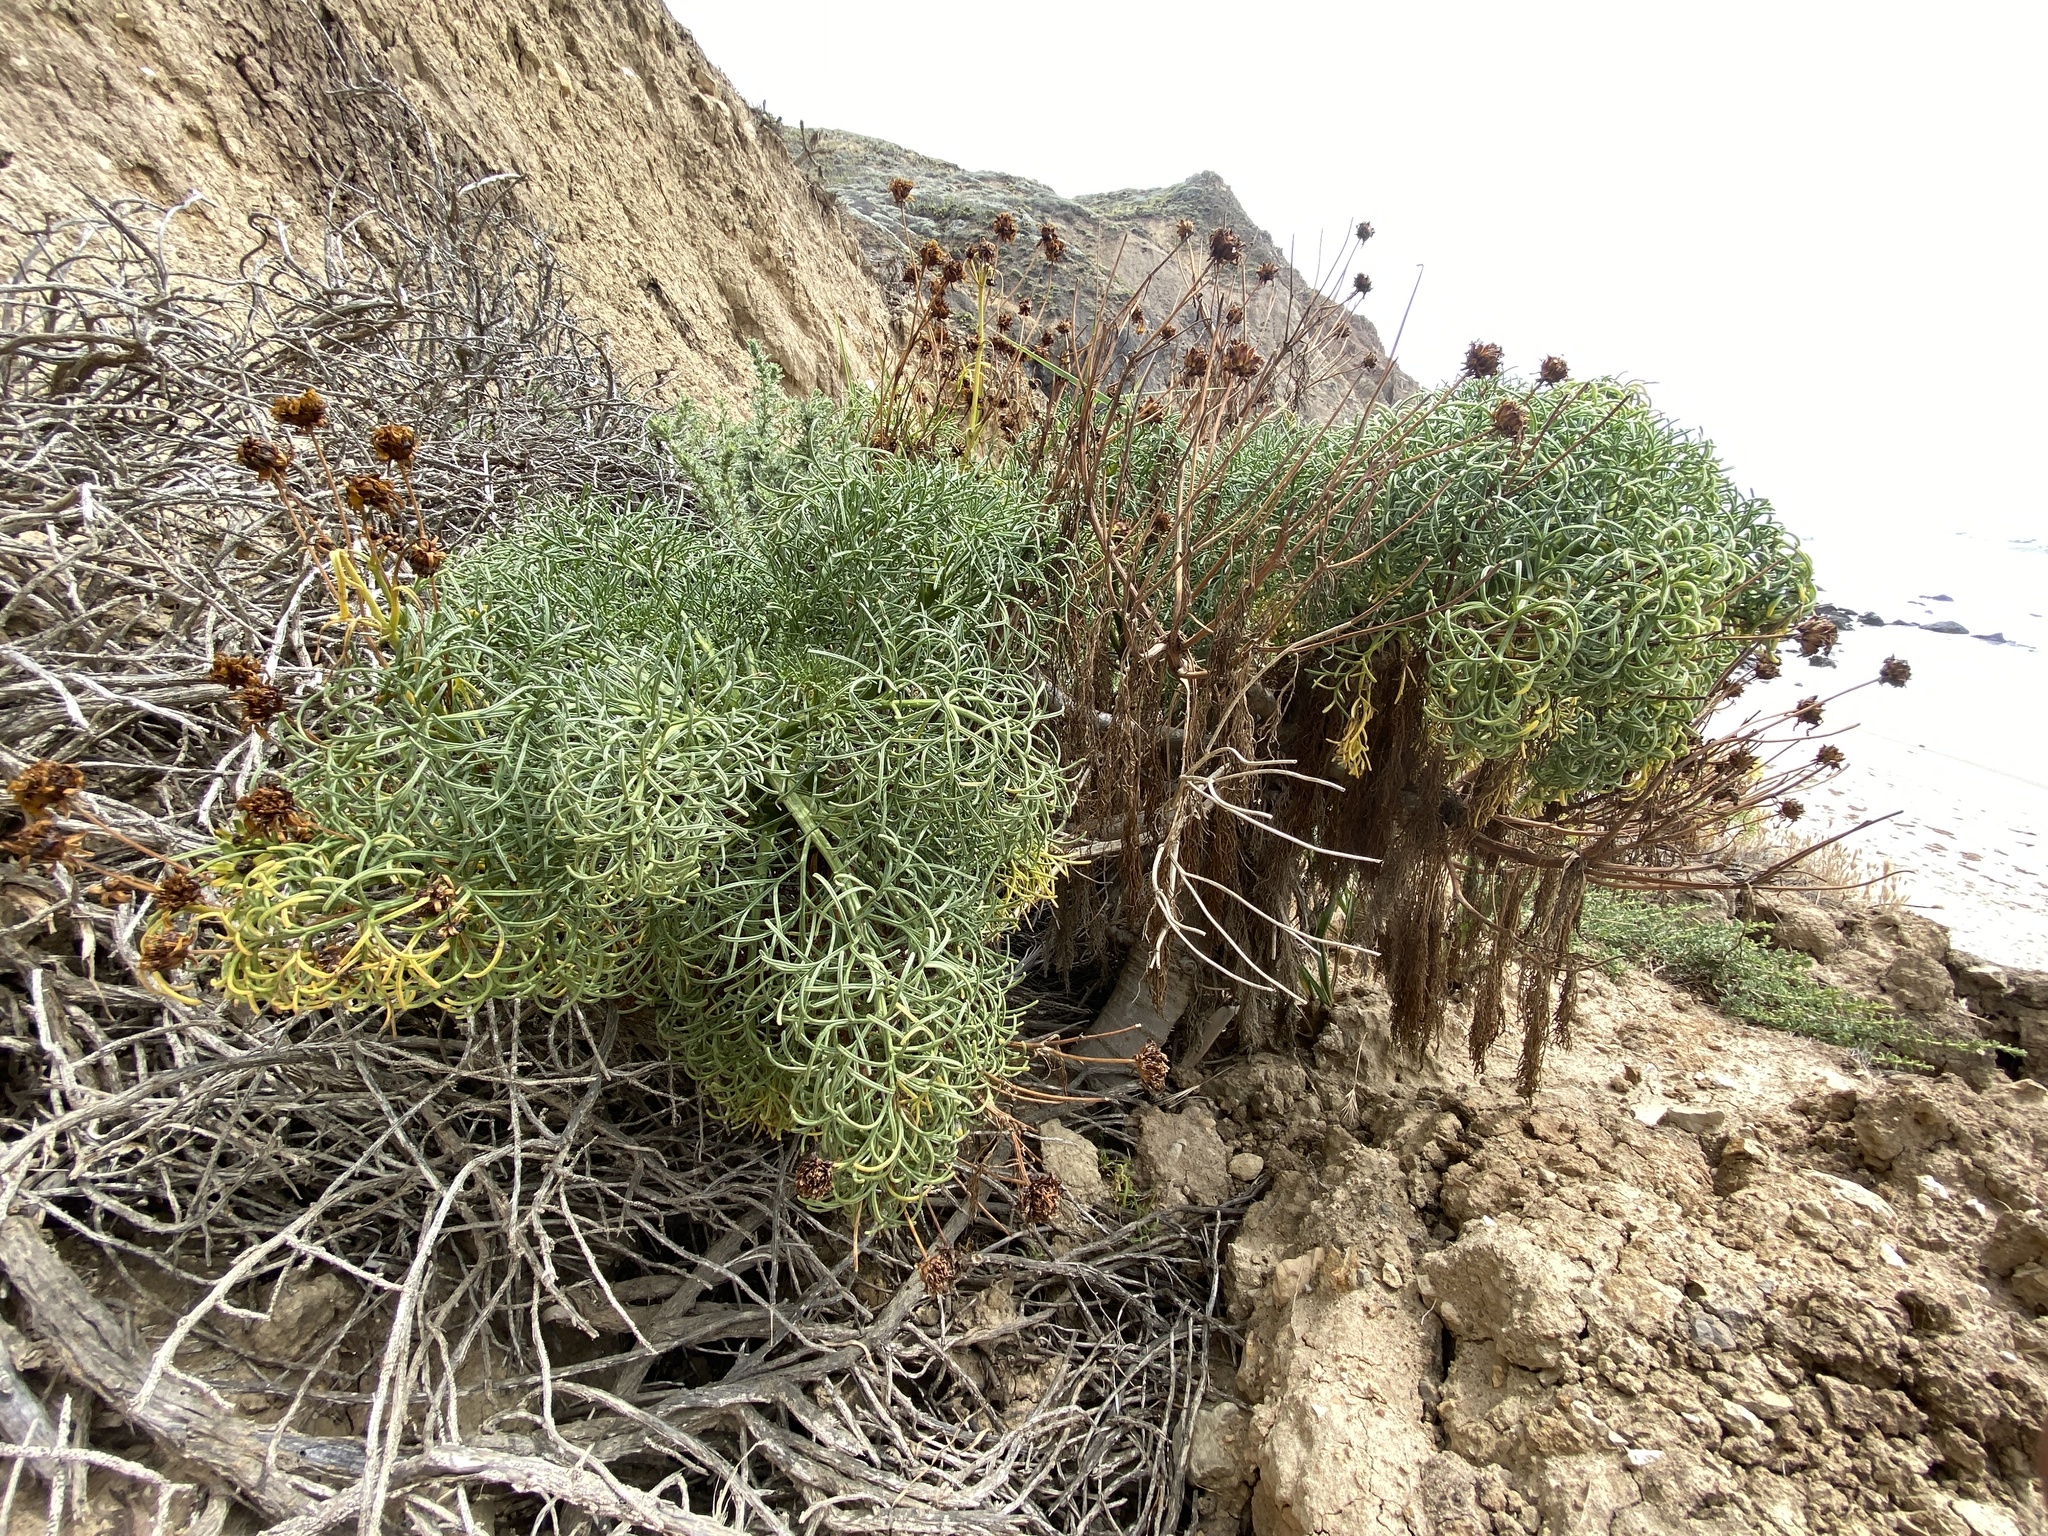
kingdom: Plantae
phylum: Tracheophyta
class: Magnoliopsida
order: Asterales
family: Asteraceae
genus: Coreopsis
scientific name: Coreopsis gigantea
